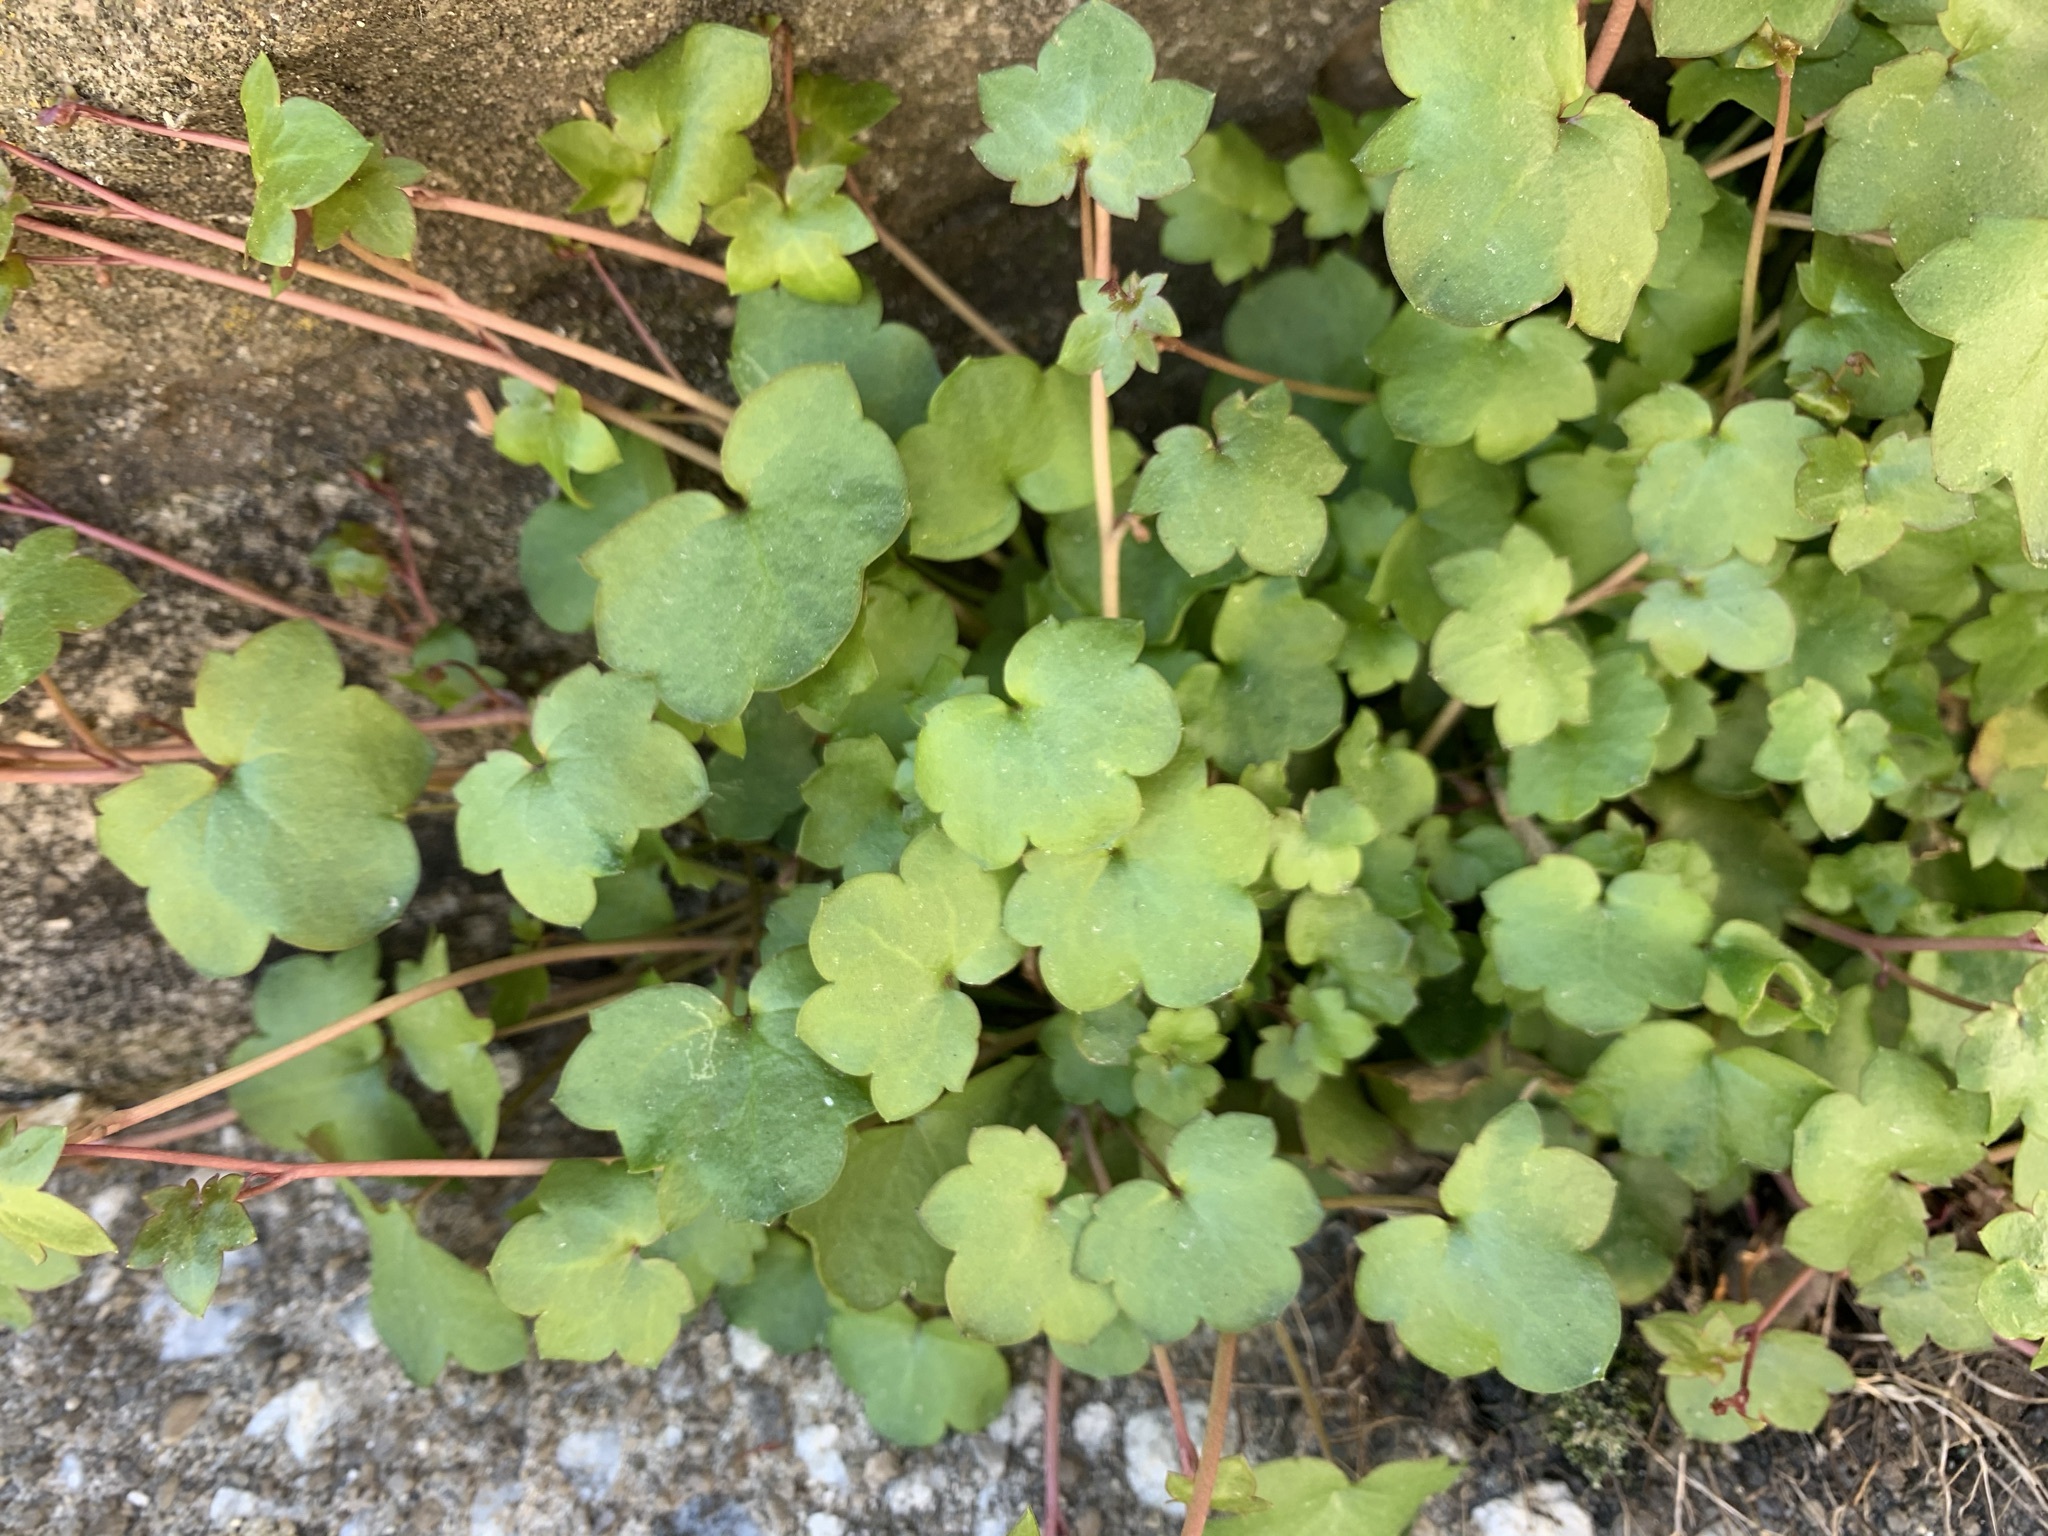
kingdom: Plantae
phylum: Tracheophyta
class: Magnoliopsida
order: Lamiales
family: Plantaginaceae
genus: Cymbalaria
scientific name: Cymbalaria muralis
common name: Ivy-leaved toadflax
